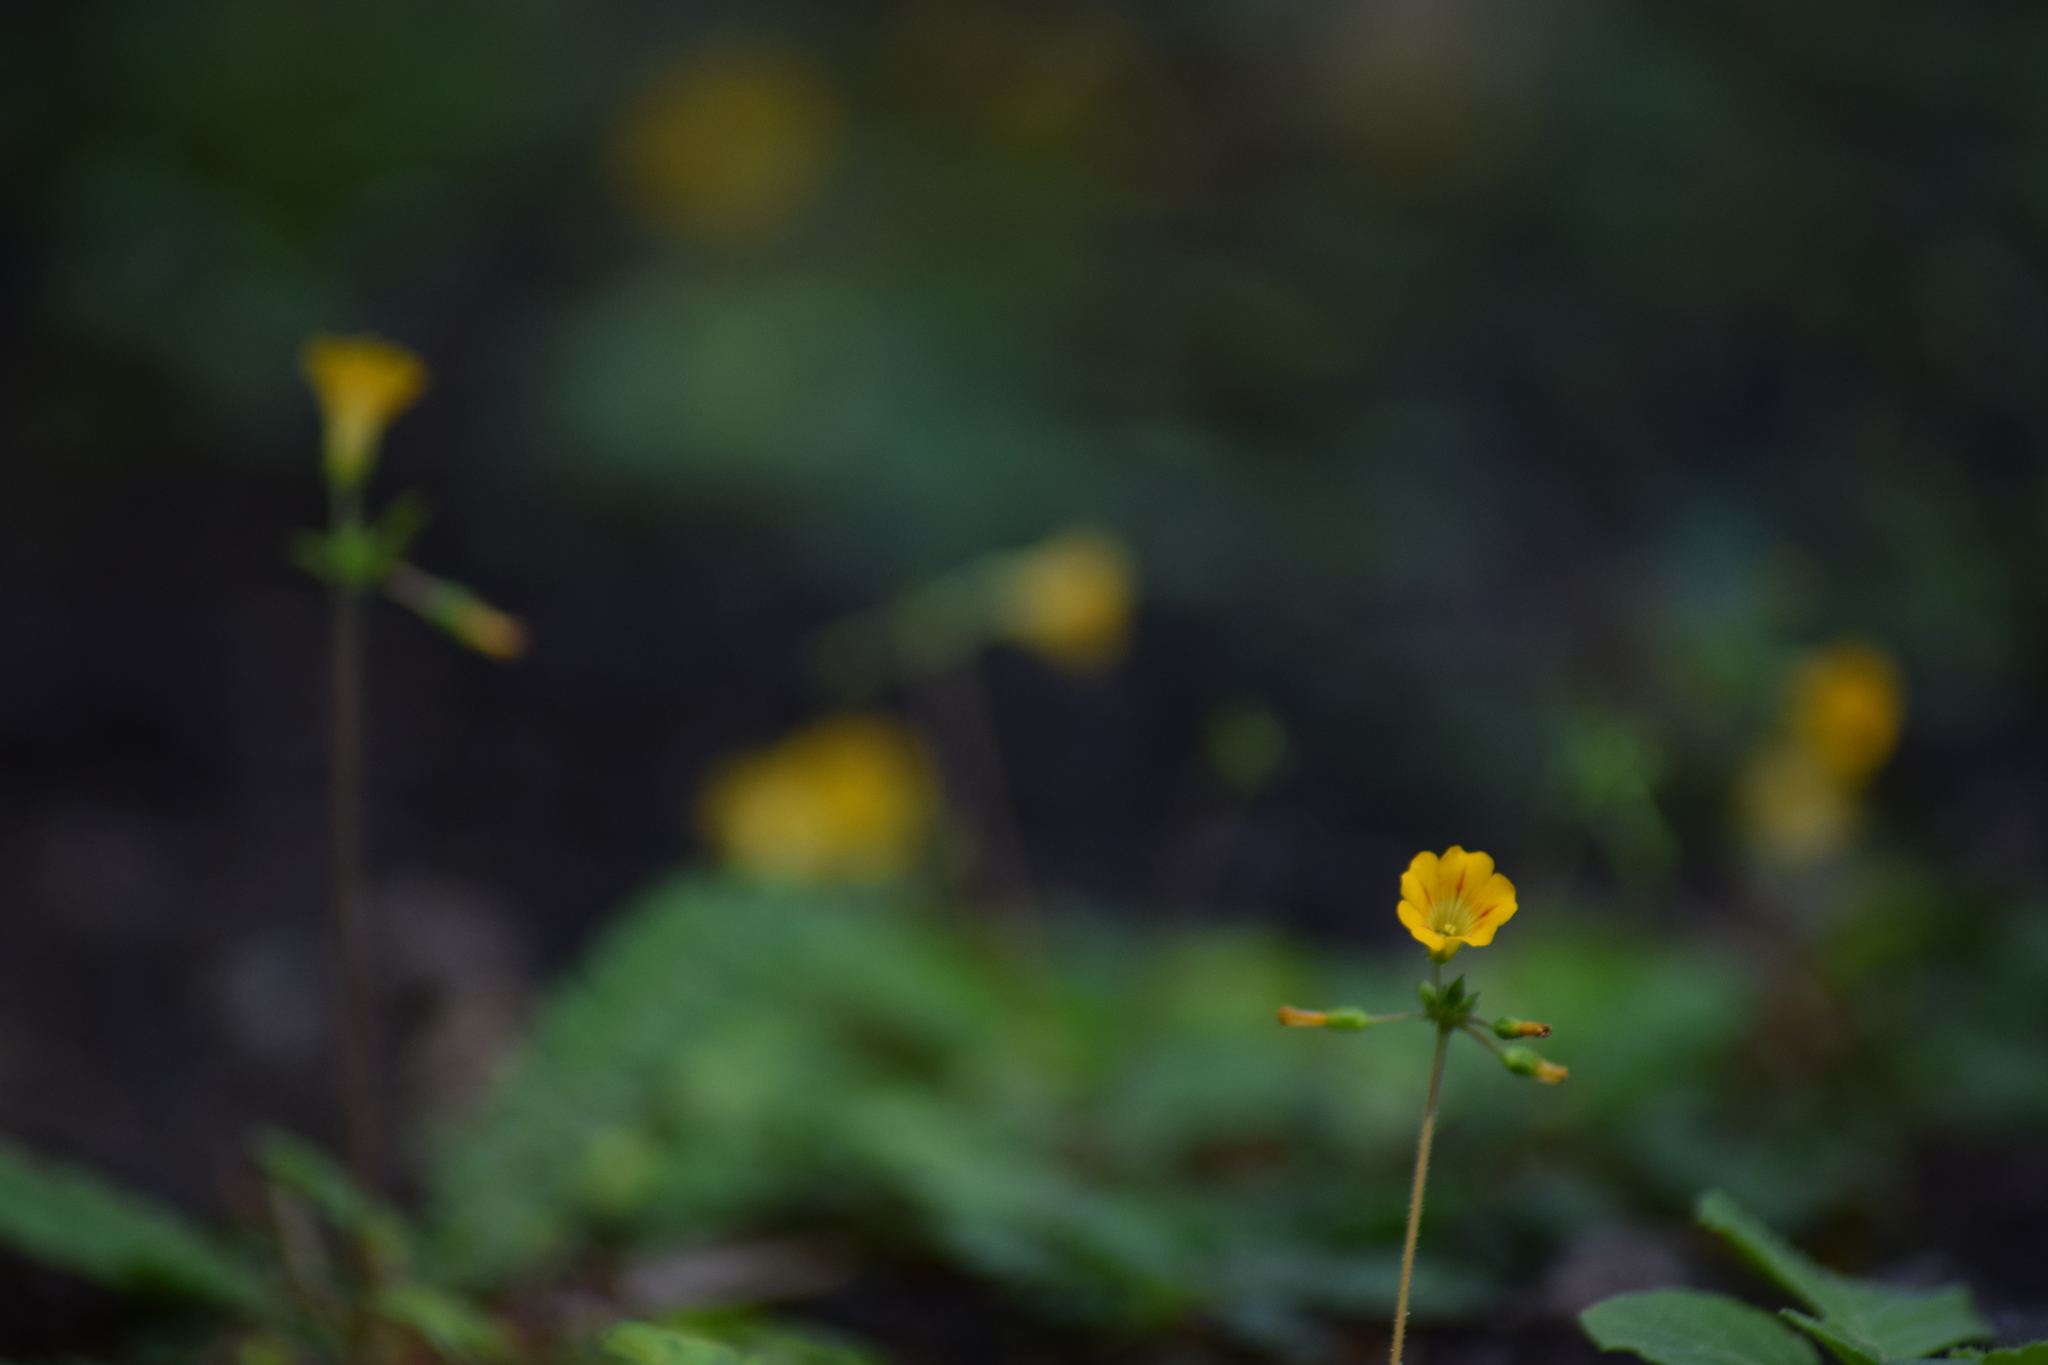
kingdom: Plantae
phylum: Tracheophyta
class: Magnoliopsida
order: Oxalidales
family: Oxalidaceae
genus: Biophytum
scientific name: Biophytum sensitivum
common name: Lifeplant
